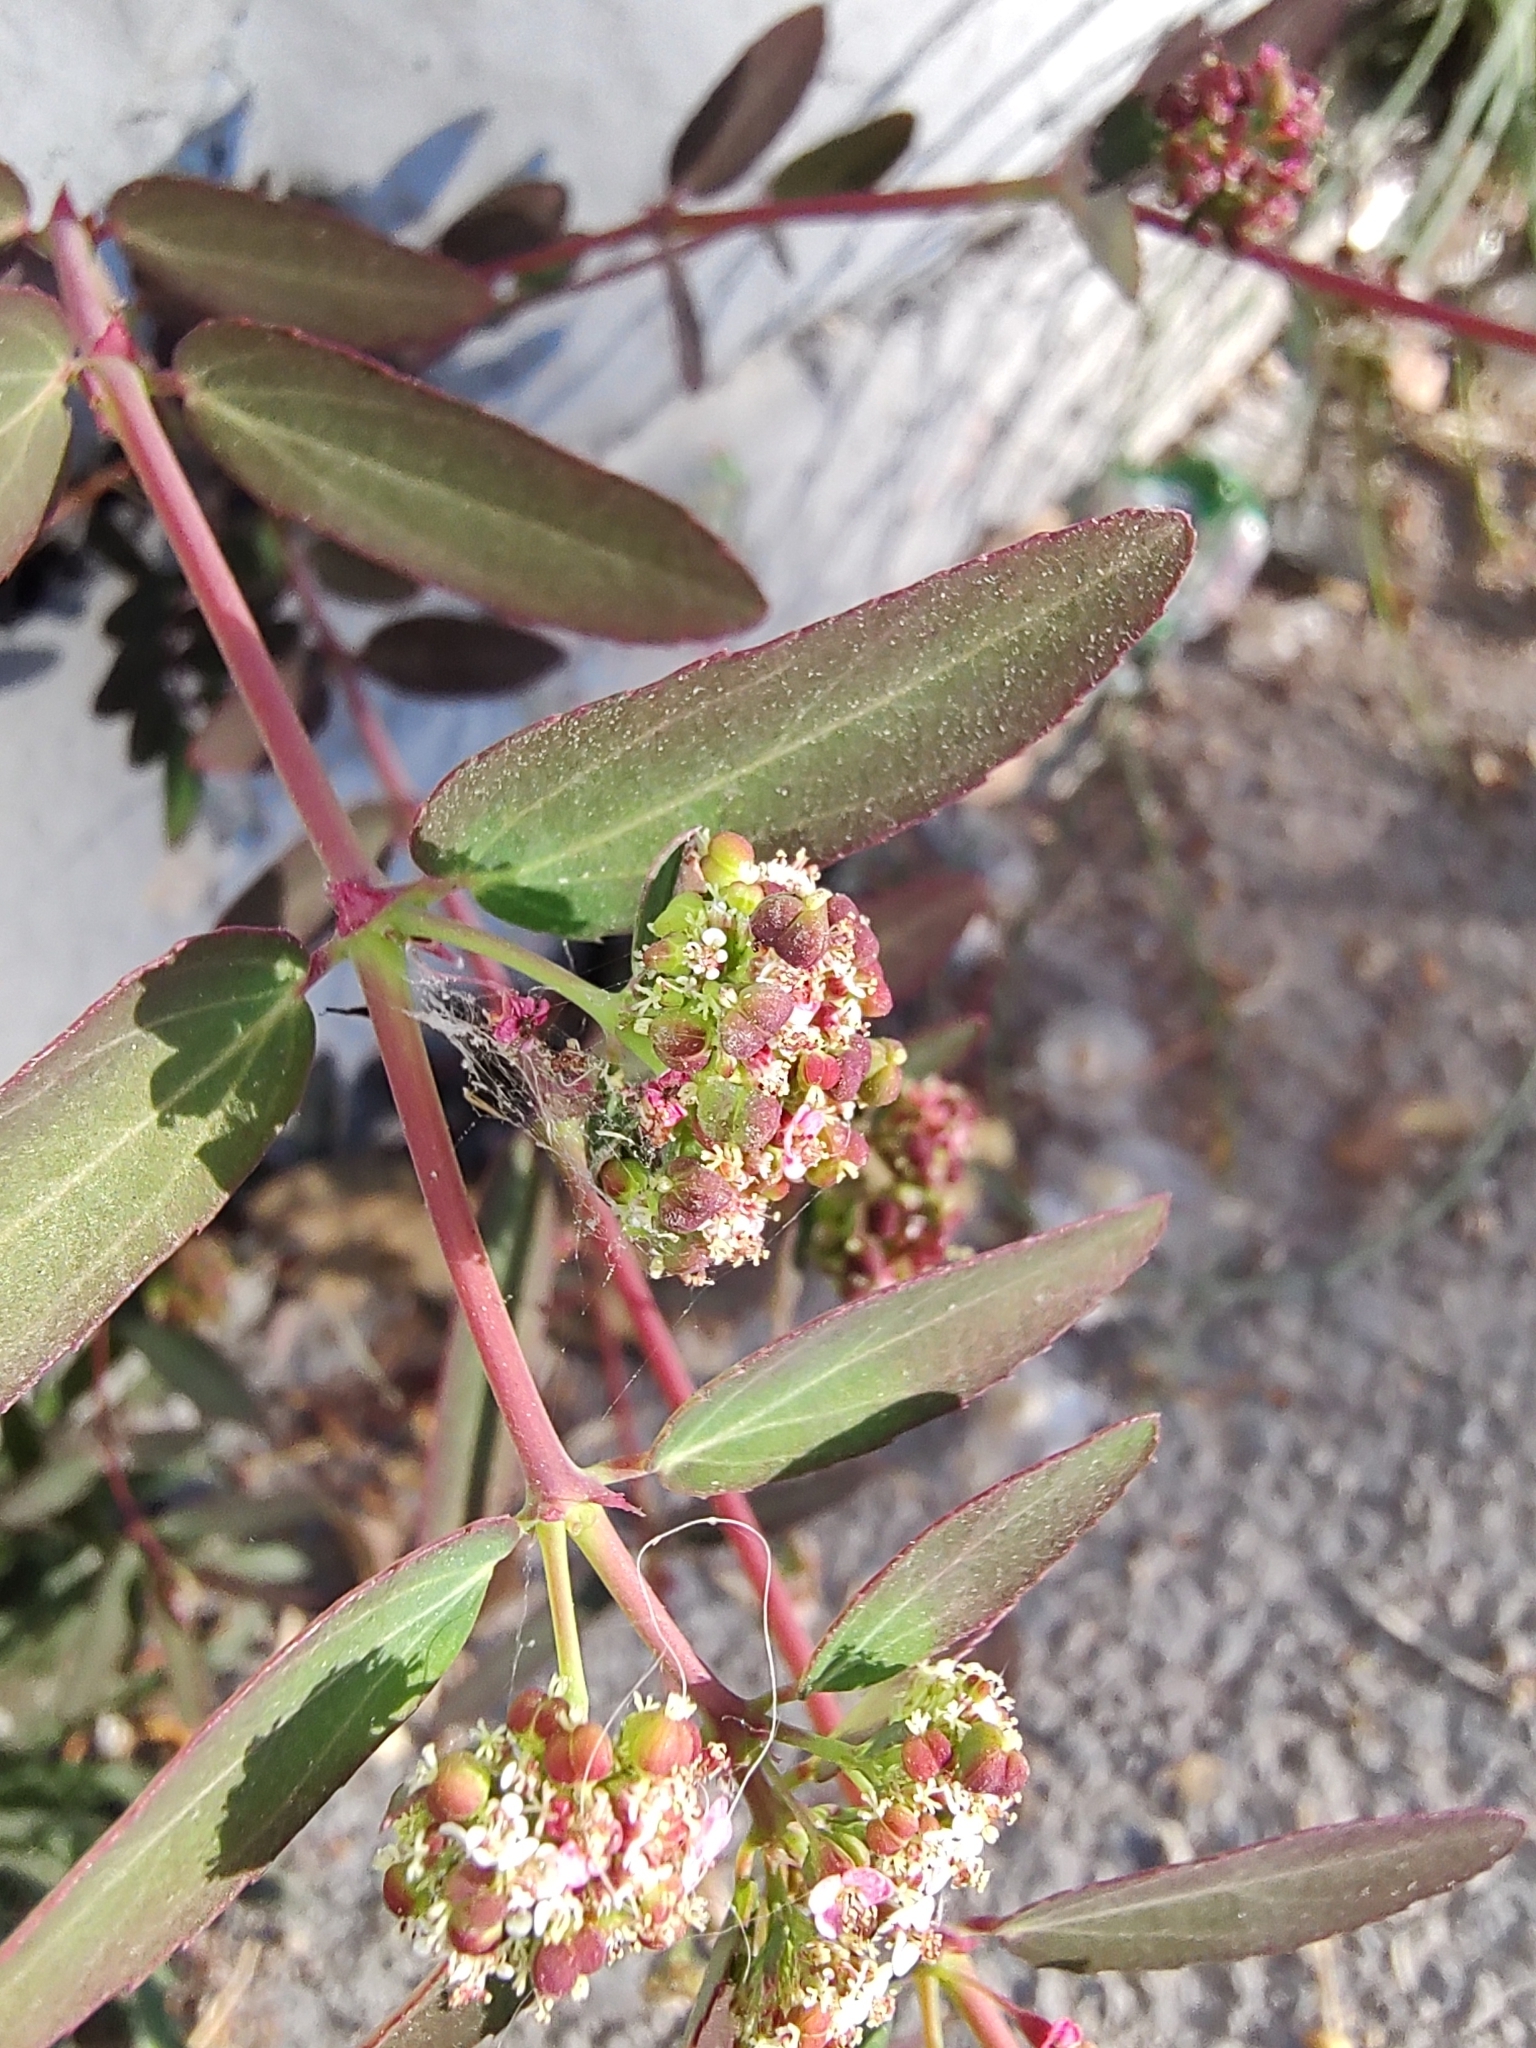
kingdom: Plantae
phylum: Tracheophyta
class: Magnoliopsida
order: Malpighiales
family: Euphorbiaceae
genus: Euphorbia
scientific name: Euphorbia hypericifolia
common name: Graceful sandmat
